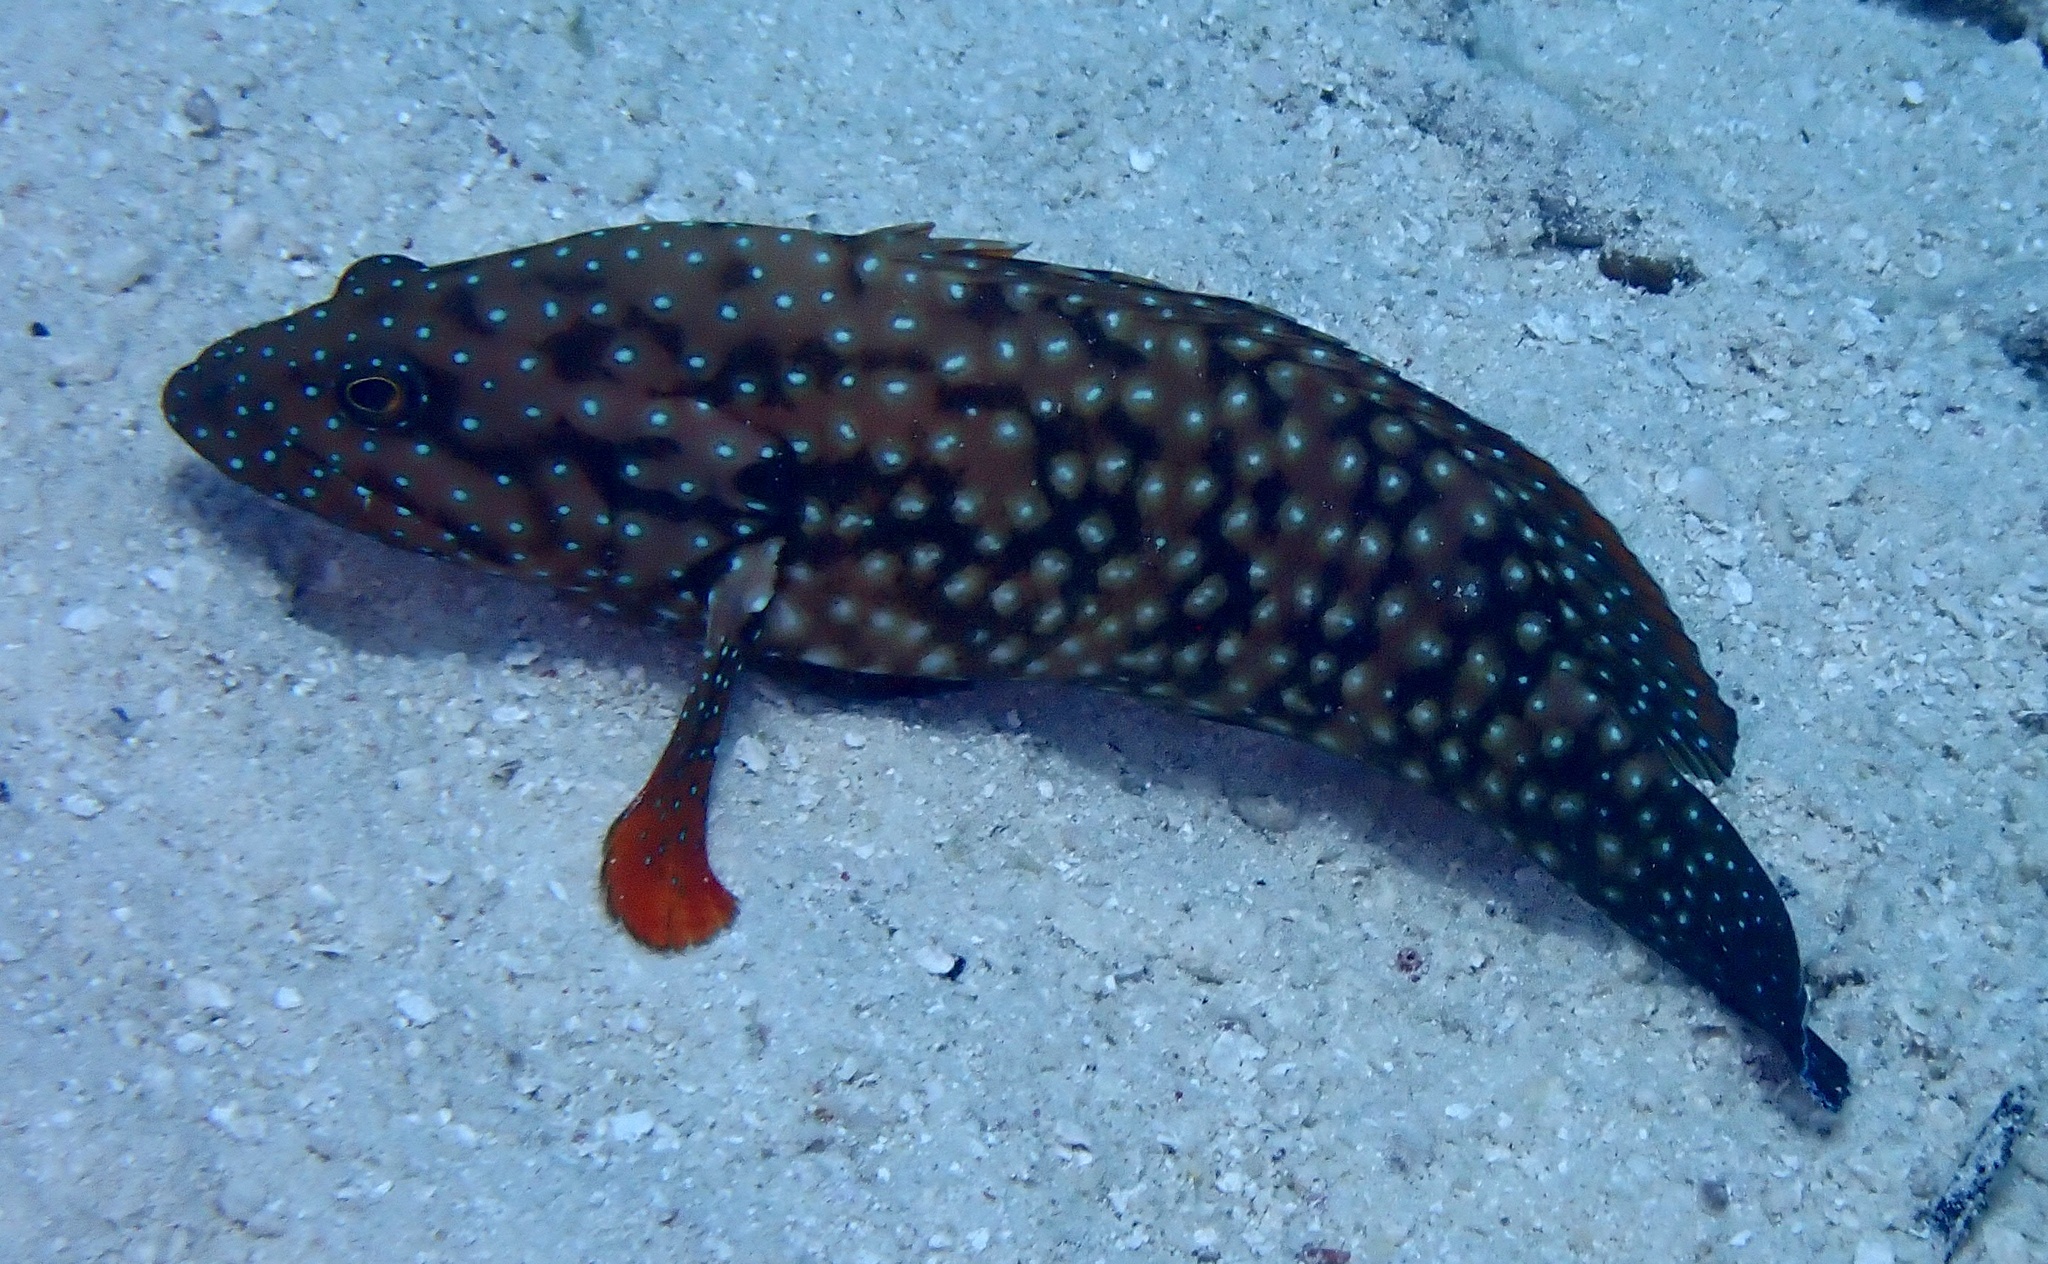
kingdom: Animalia
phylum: Chordata
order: Perciformes
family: Serranidae
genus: Cephalopholis
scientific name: Cephalopholis cyanostigma
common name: Bluespotted hind
